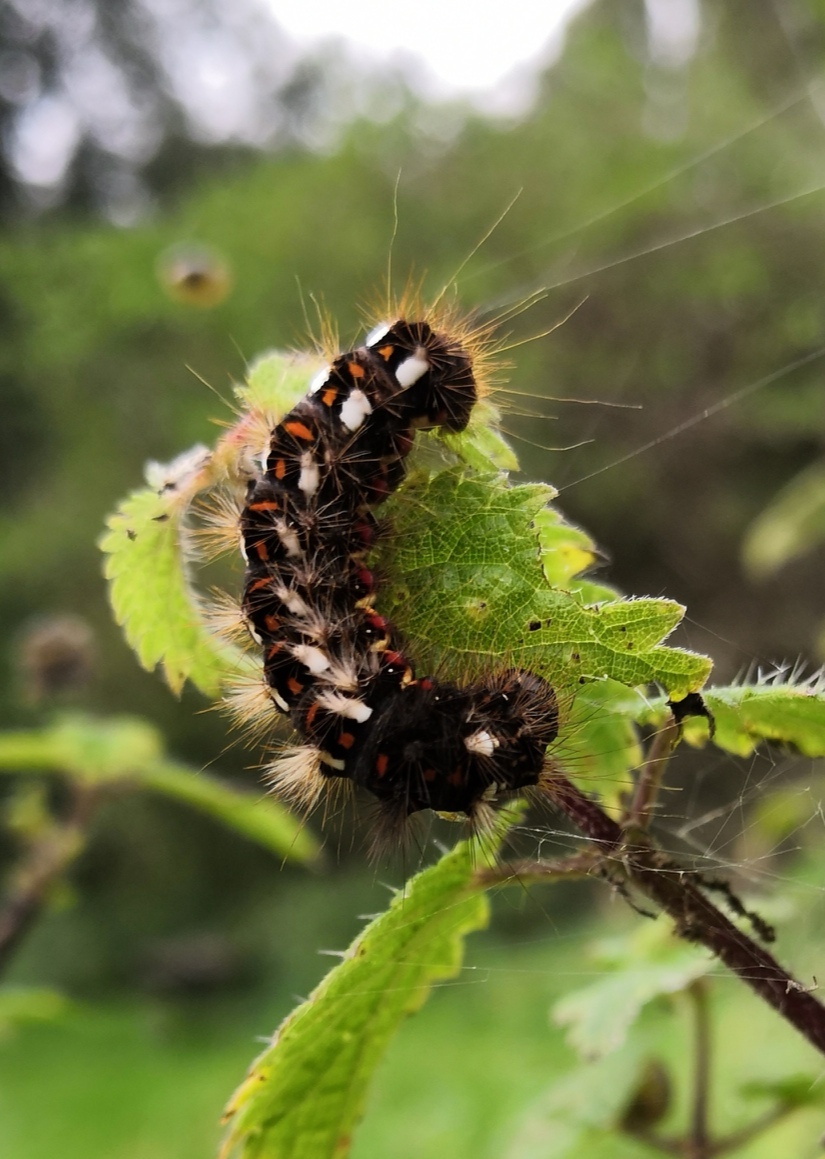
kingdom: Animalia
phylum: Arthropoda
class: Insecta
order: Lepidoptera
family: Noctuidae
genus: Acronicta
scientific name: Acronicta rumicis
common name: Knot grass
